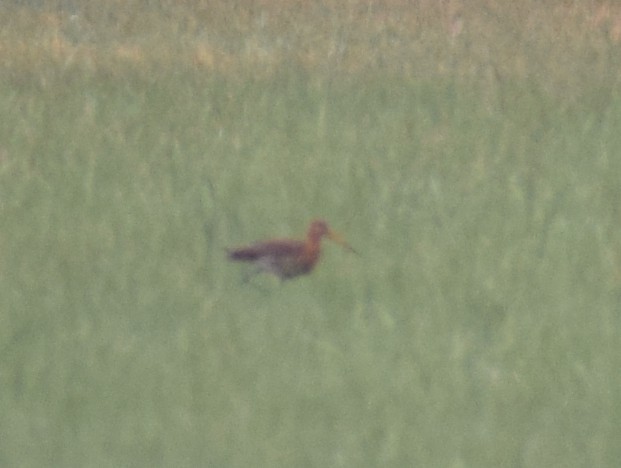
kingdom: Animalia
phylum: Chordata
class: Aves
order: Charadriiformes
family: Scolopacidae
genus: Limosa
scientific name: Limosa limosa
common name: Black-tailed godwit
